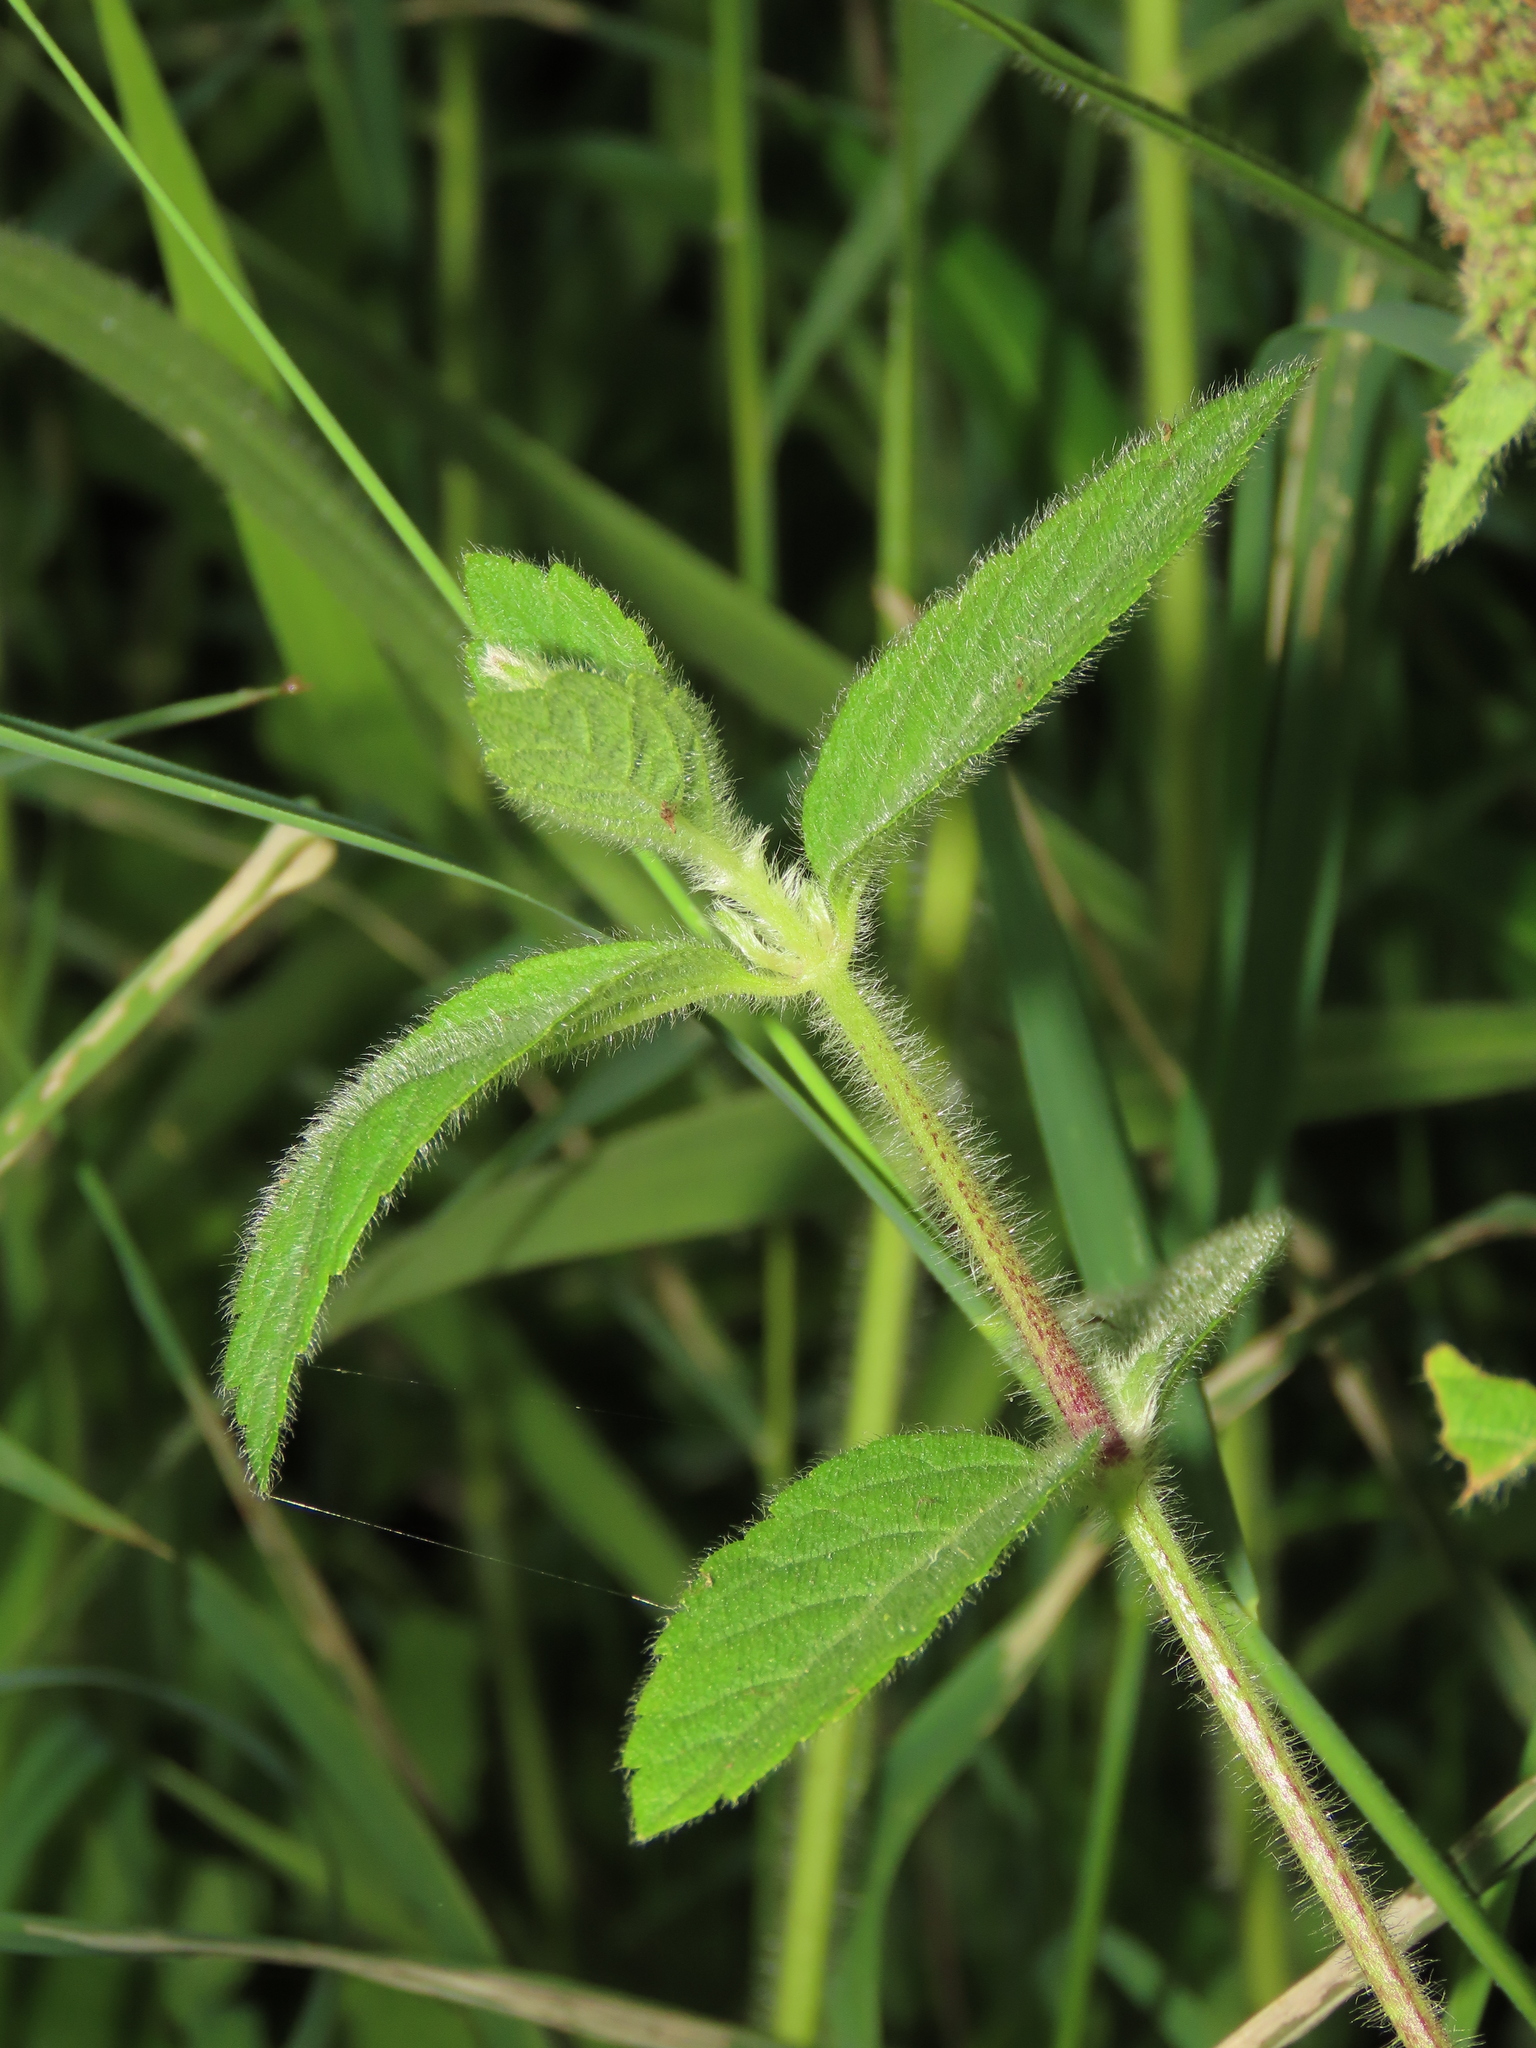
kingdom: Plantae
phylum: Tracheophyta
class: Magnoliopsida
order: Lamiales
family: Lamiaceae
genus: Pogostemon
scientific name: Pogostemon auricularius
